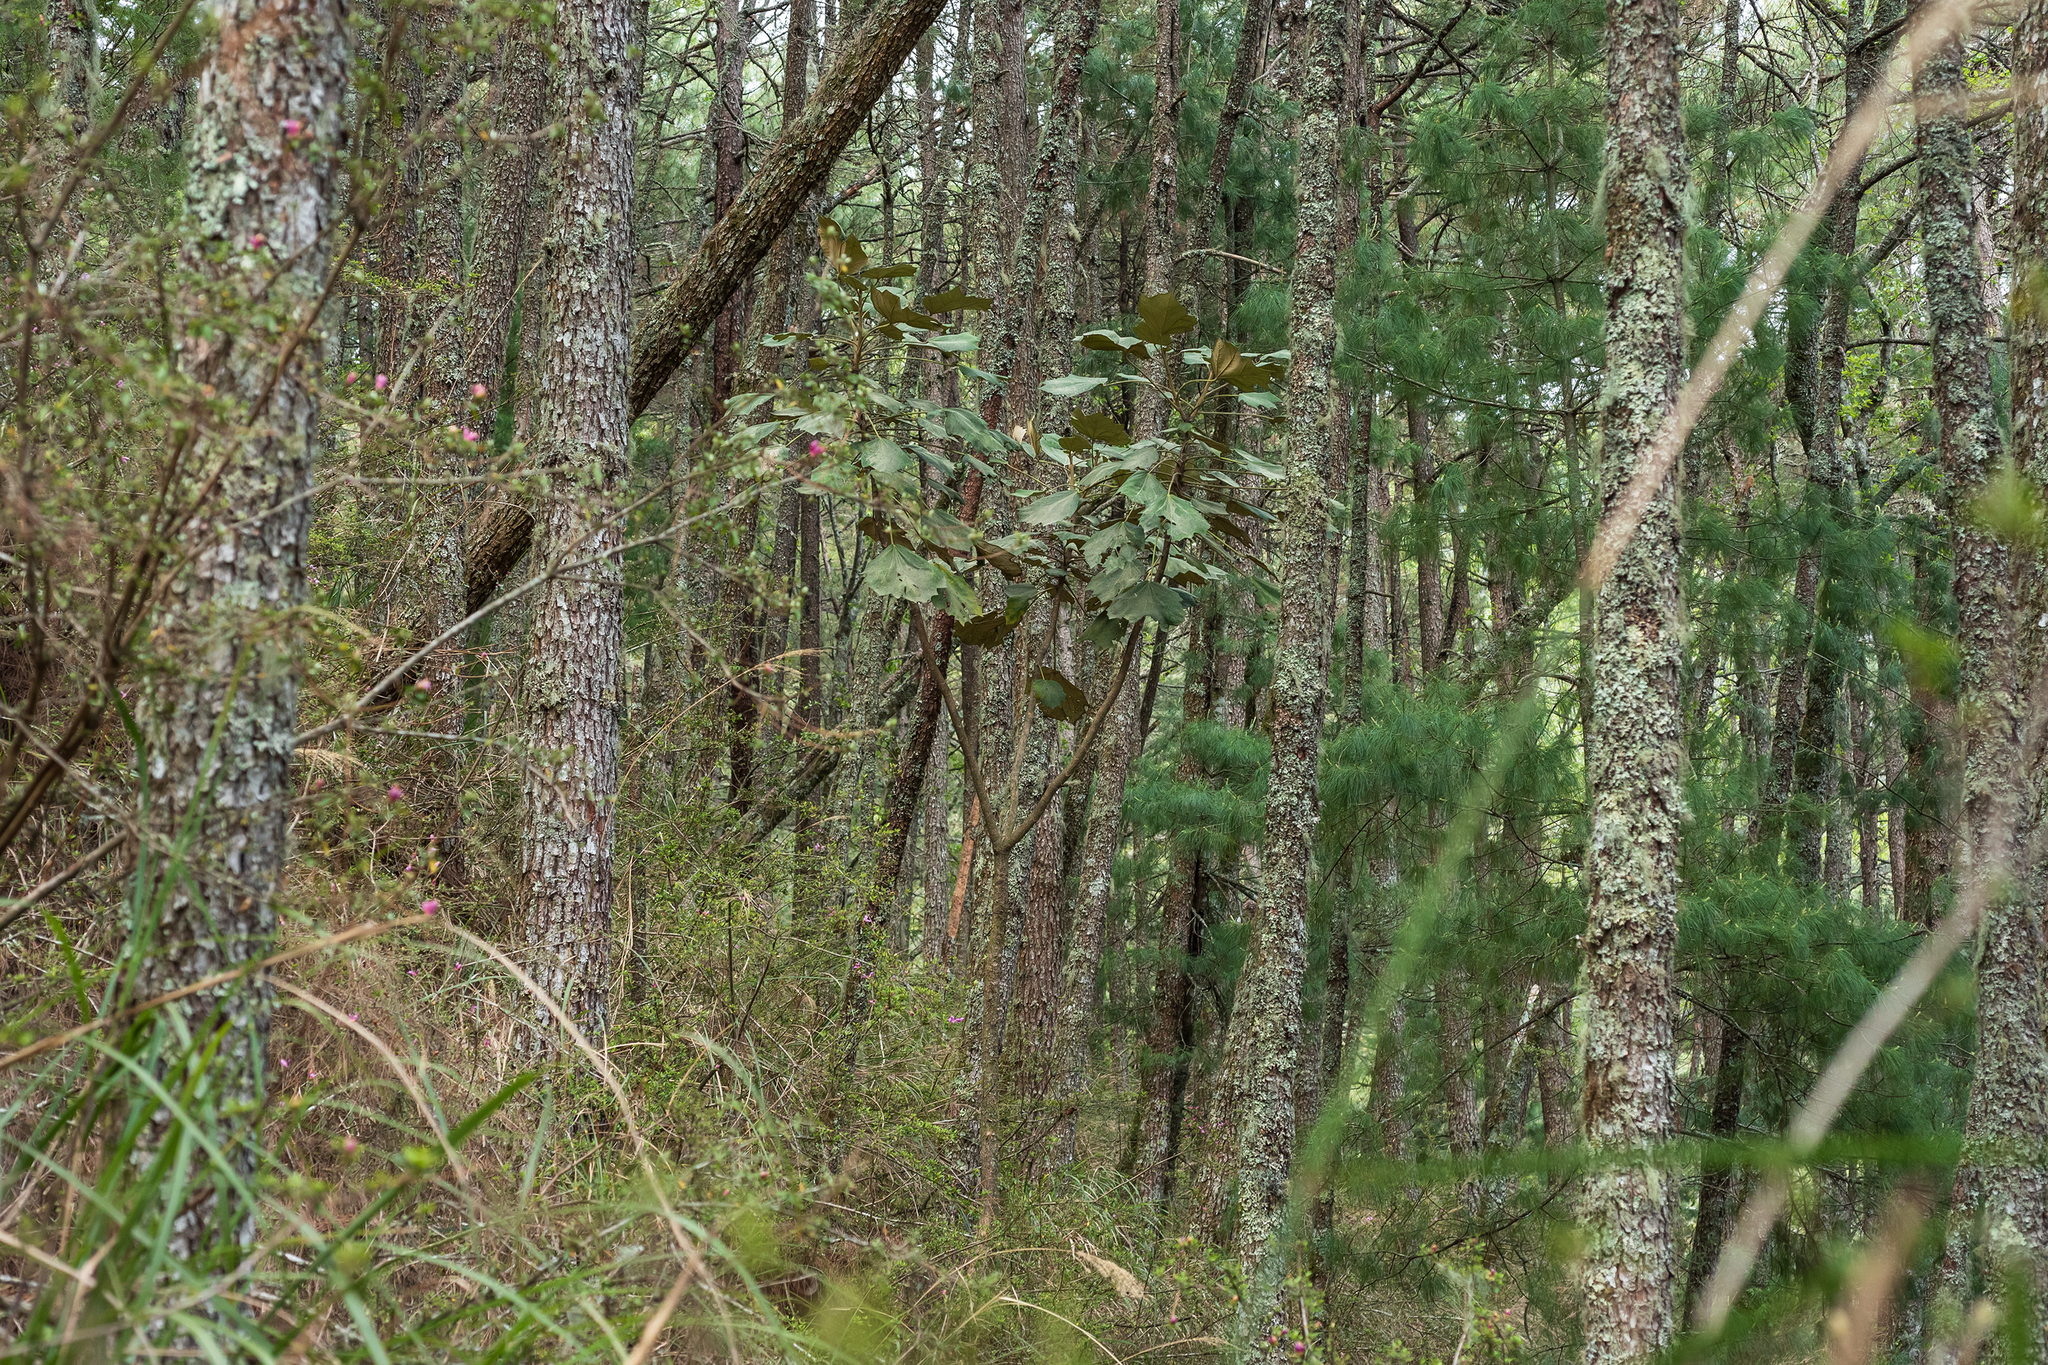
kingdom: Plantae
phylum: Tracheophyta
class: Magnoliopsida
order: Apiales
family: Araliaceae
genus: Sinopanax
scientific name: Sinopanax formosanus
